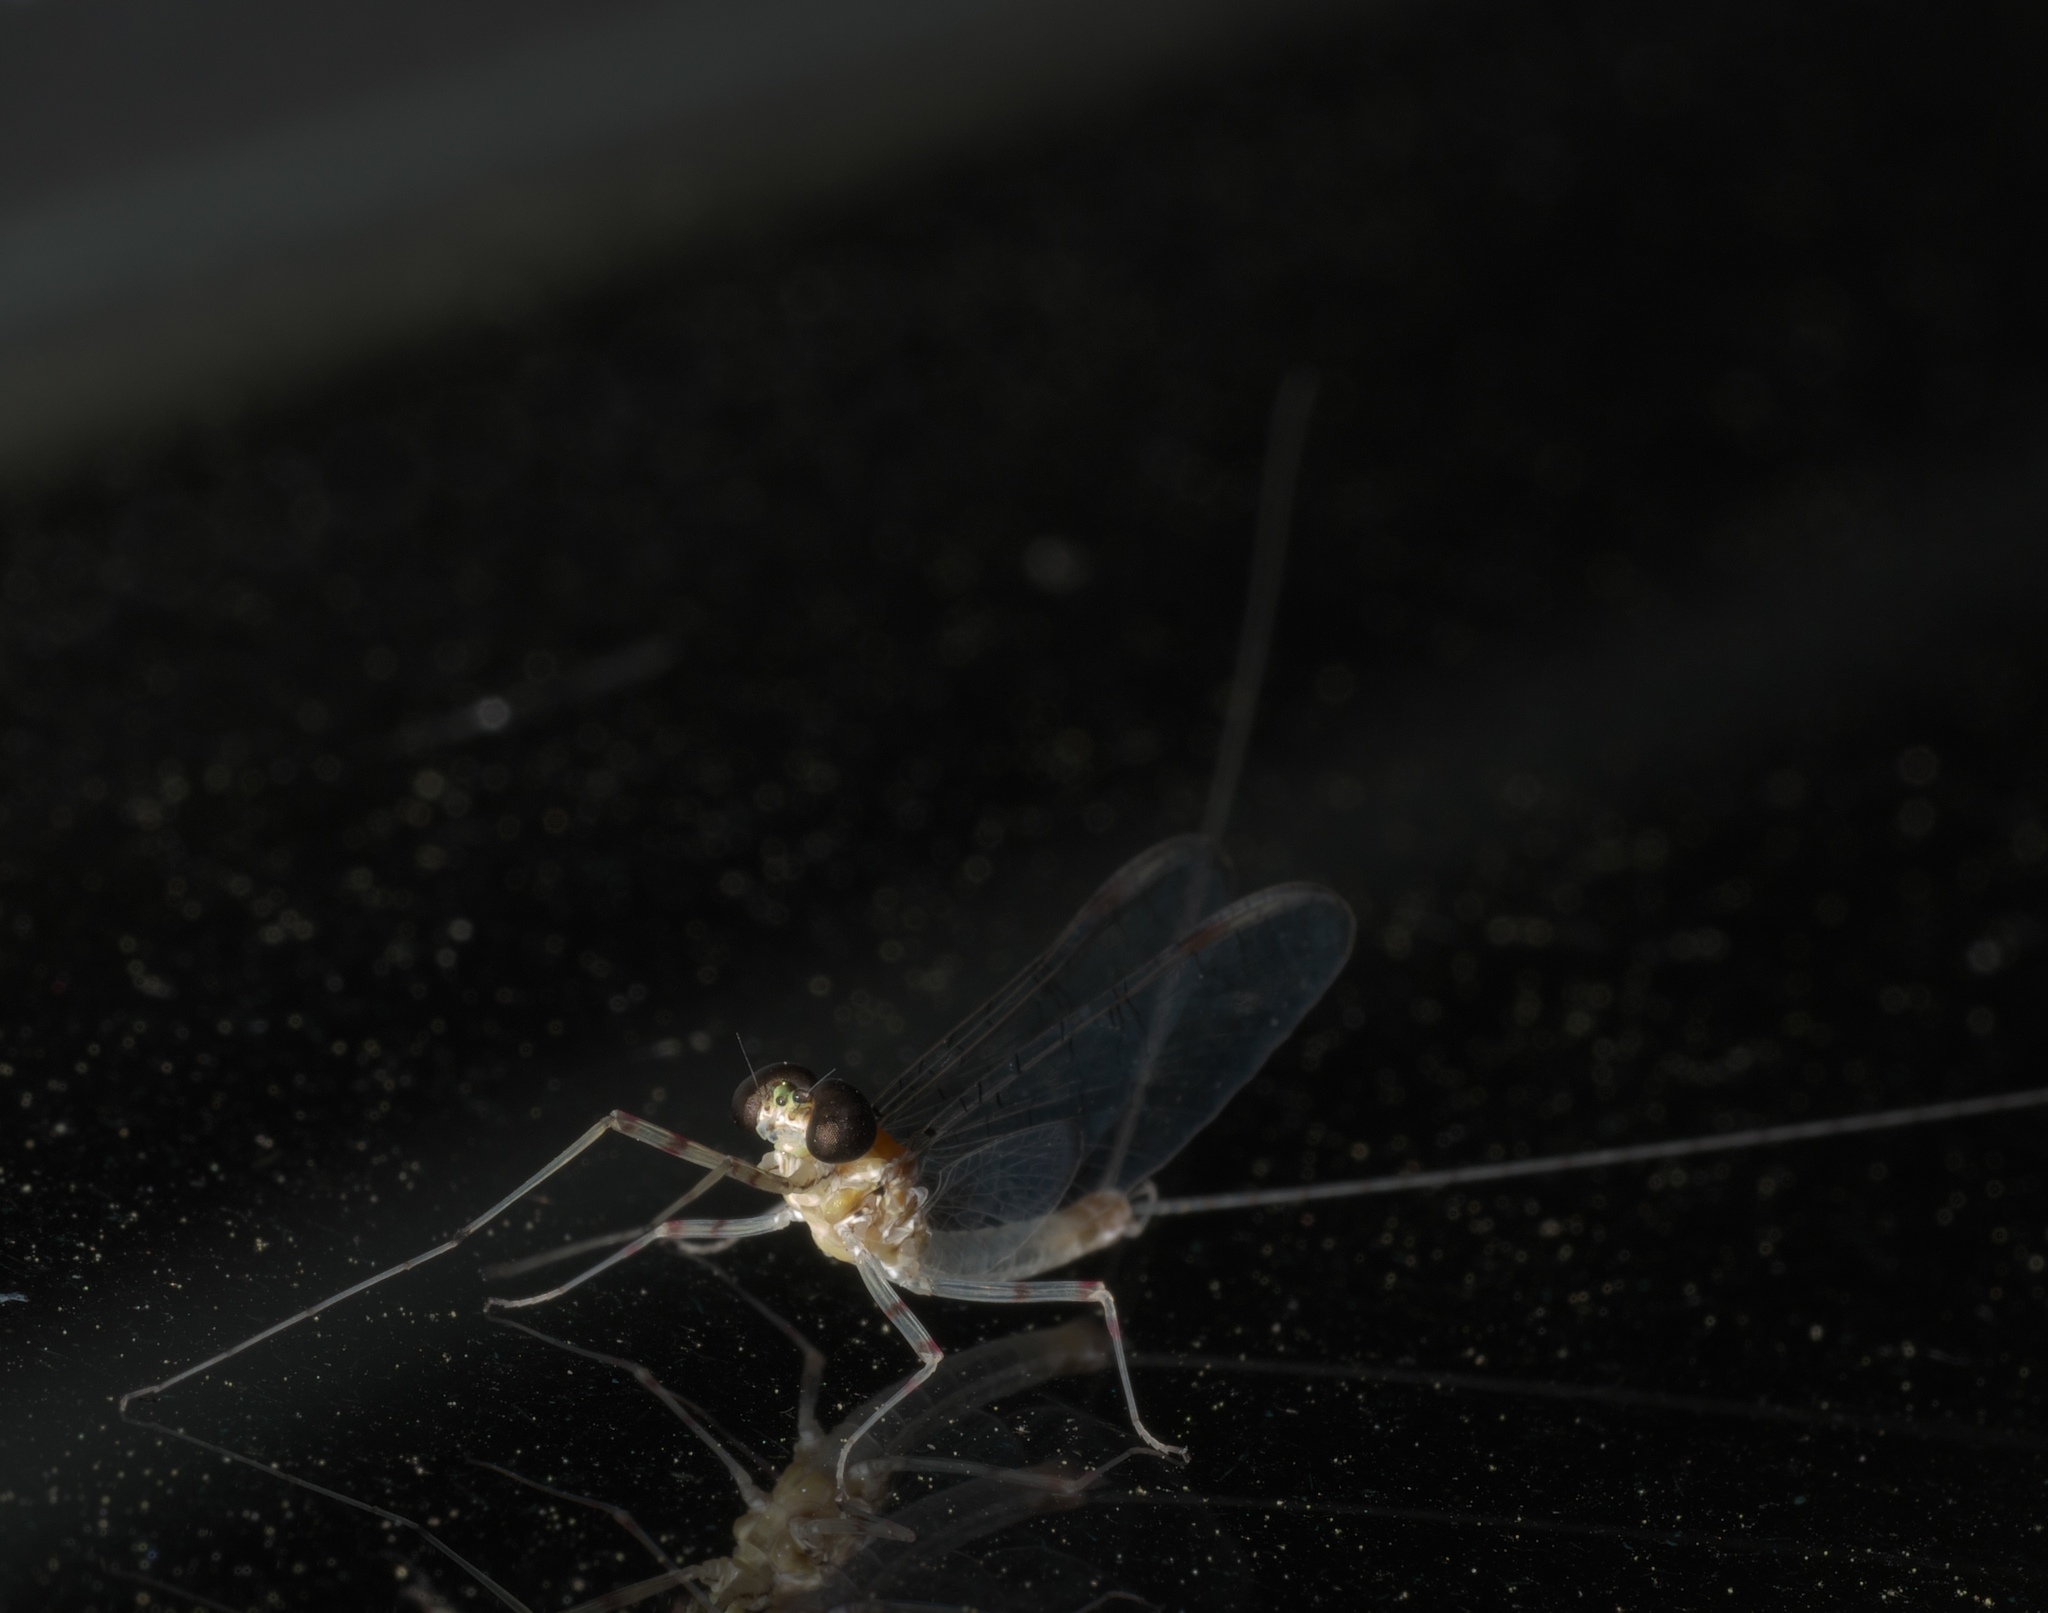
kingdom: Animalia
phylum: Arthropoda
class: Insecta
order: Ephemeroptera
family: Heptageniidae
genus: Maccaffertium
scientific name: Maccaffertium terminatum
